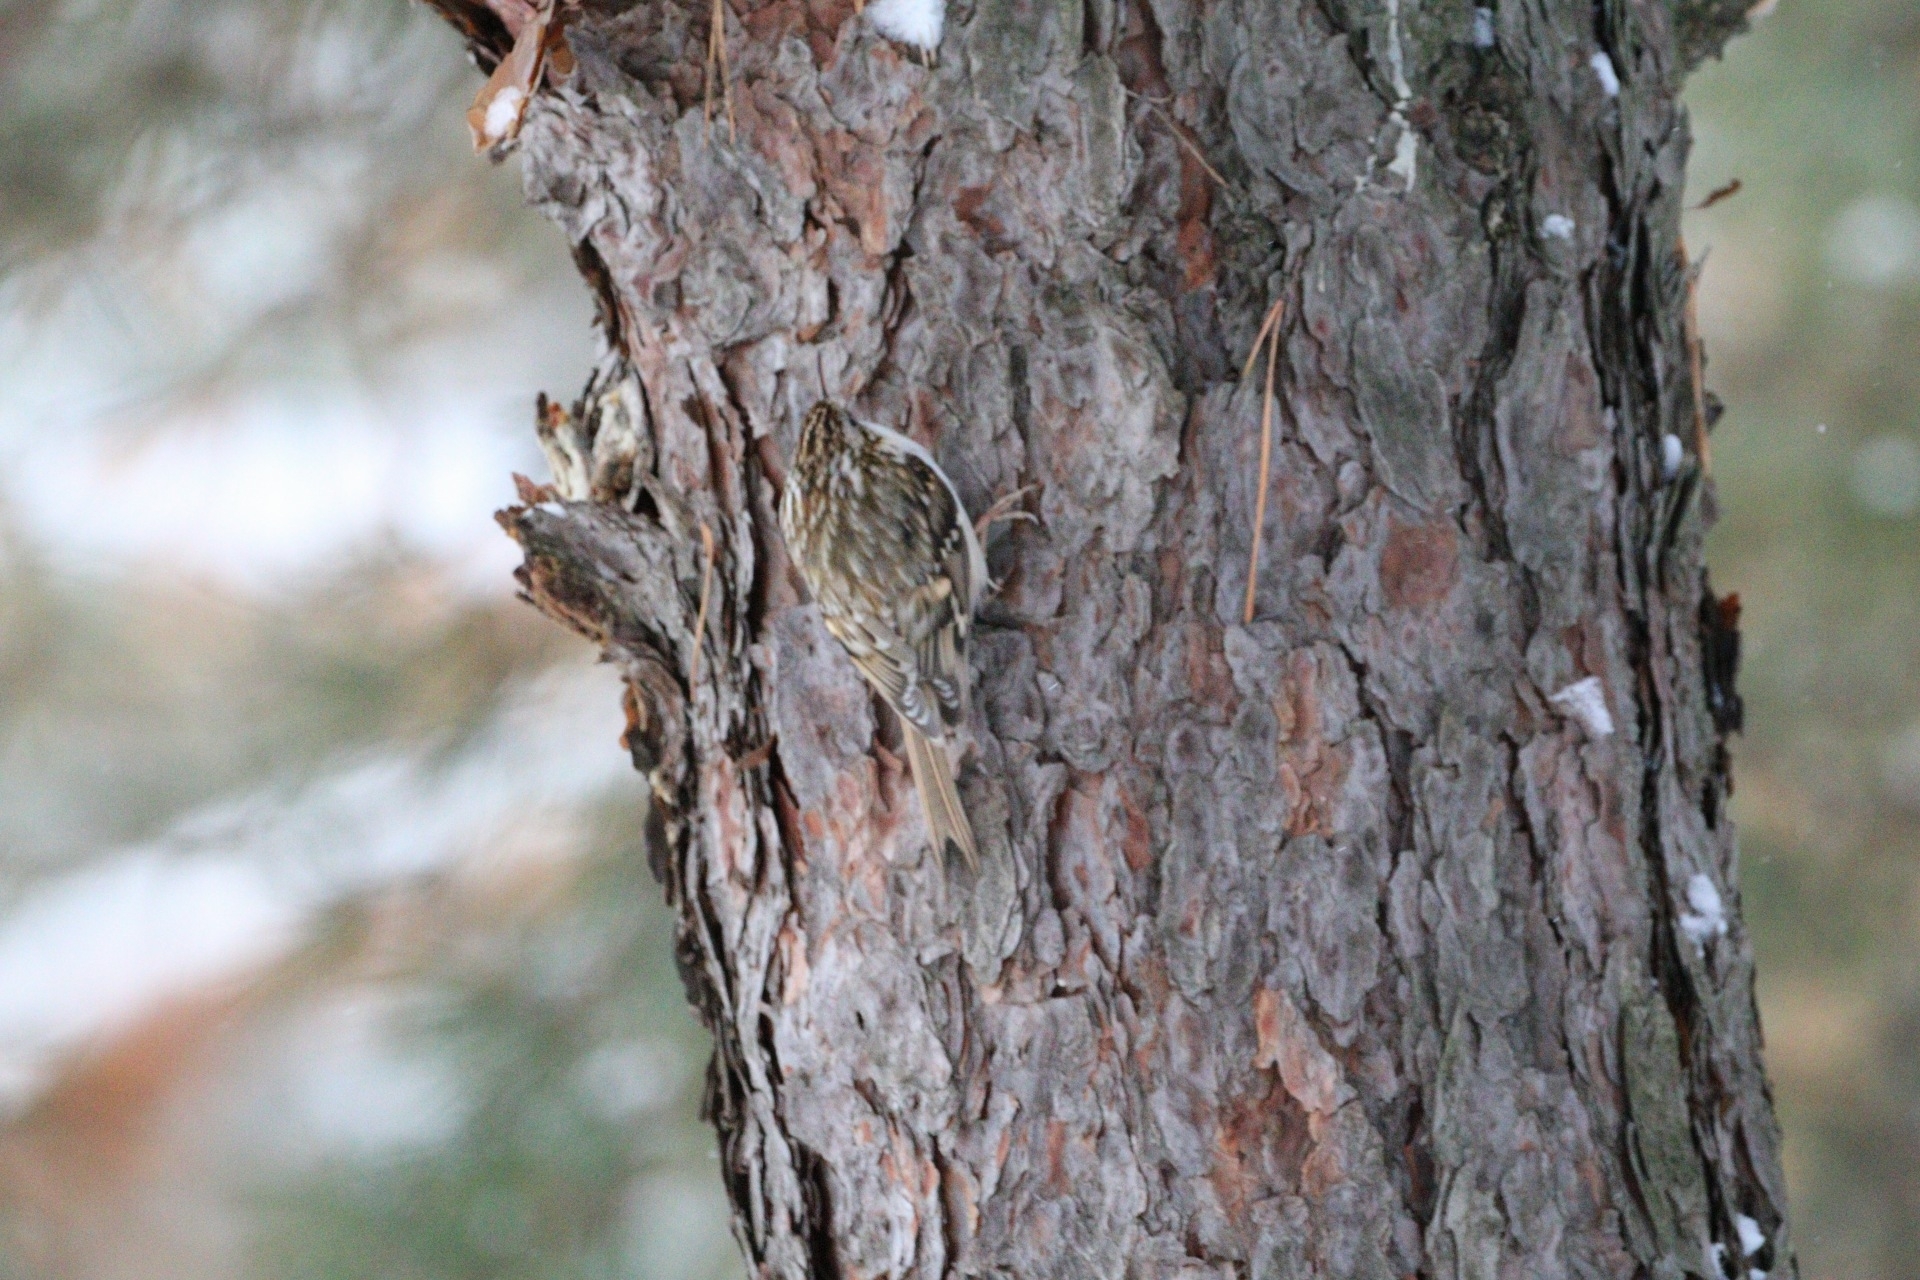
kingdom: Animalia
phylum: Chordata
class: Aves
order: Passeriformes
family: Certhiidae
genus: Certhia
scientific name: Certhia familiaris
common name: Eurasian treecreeper
